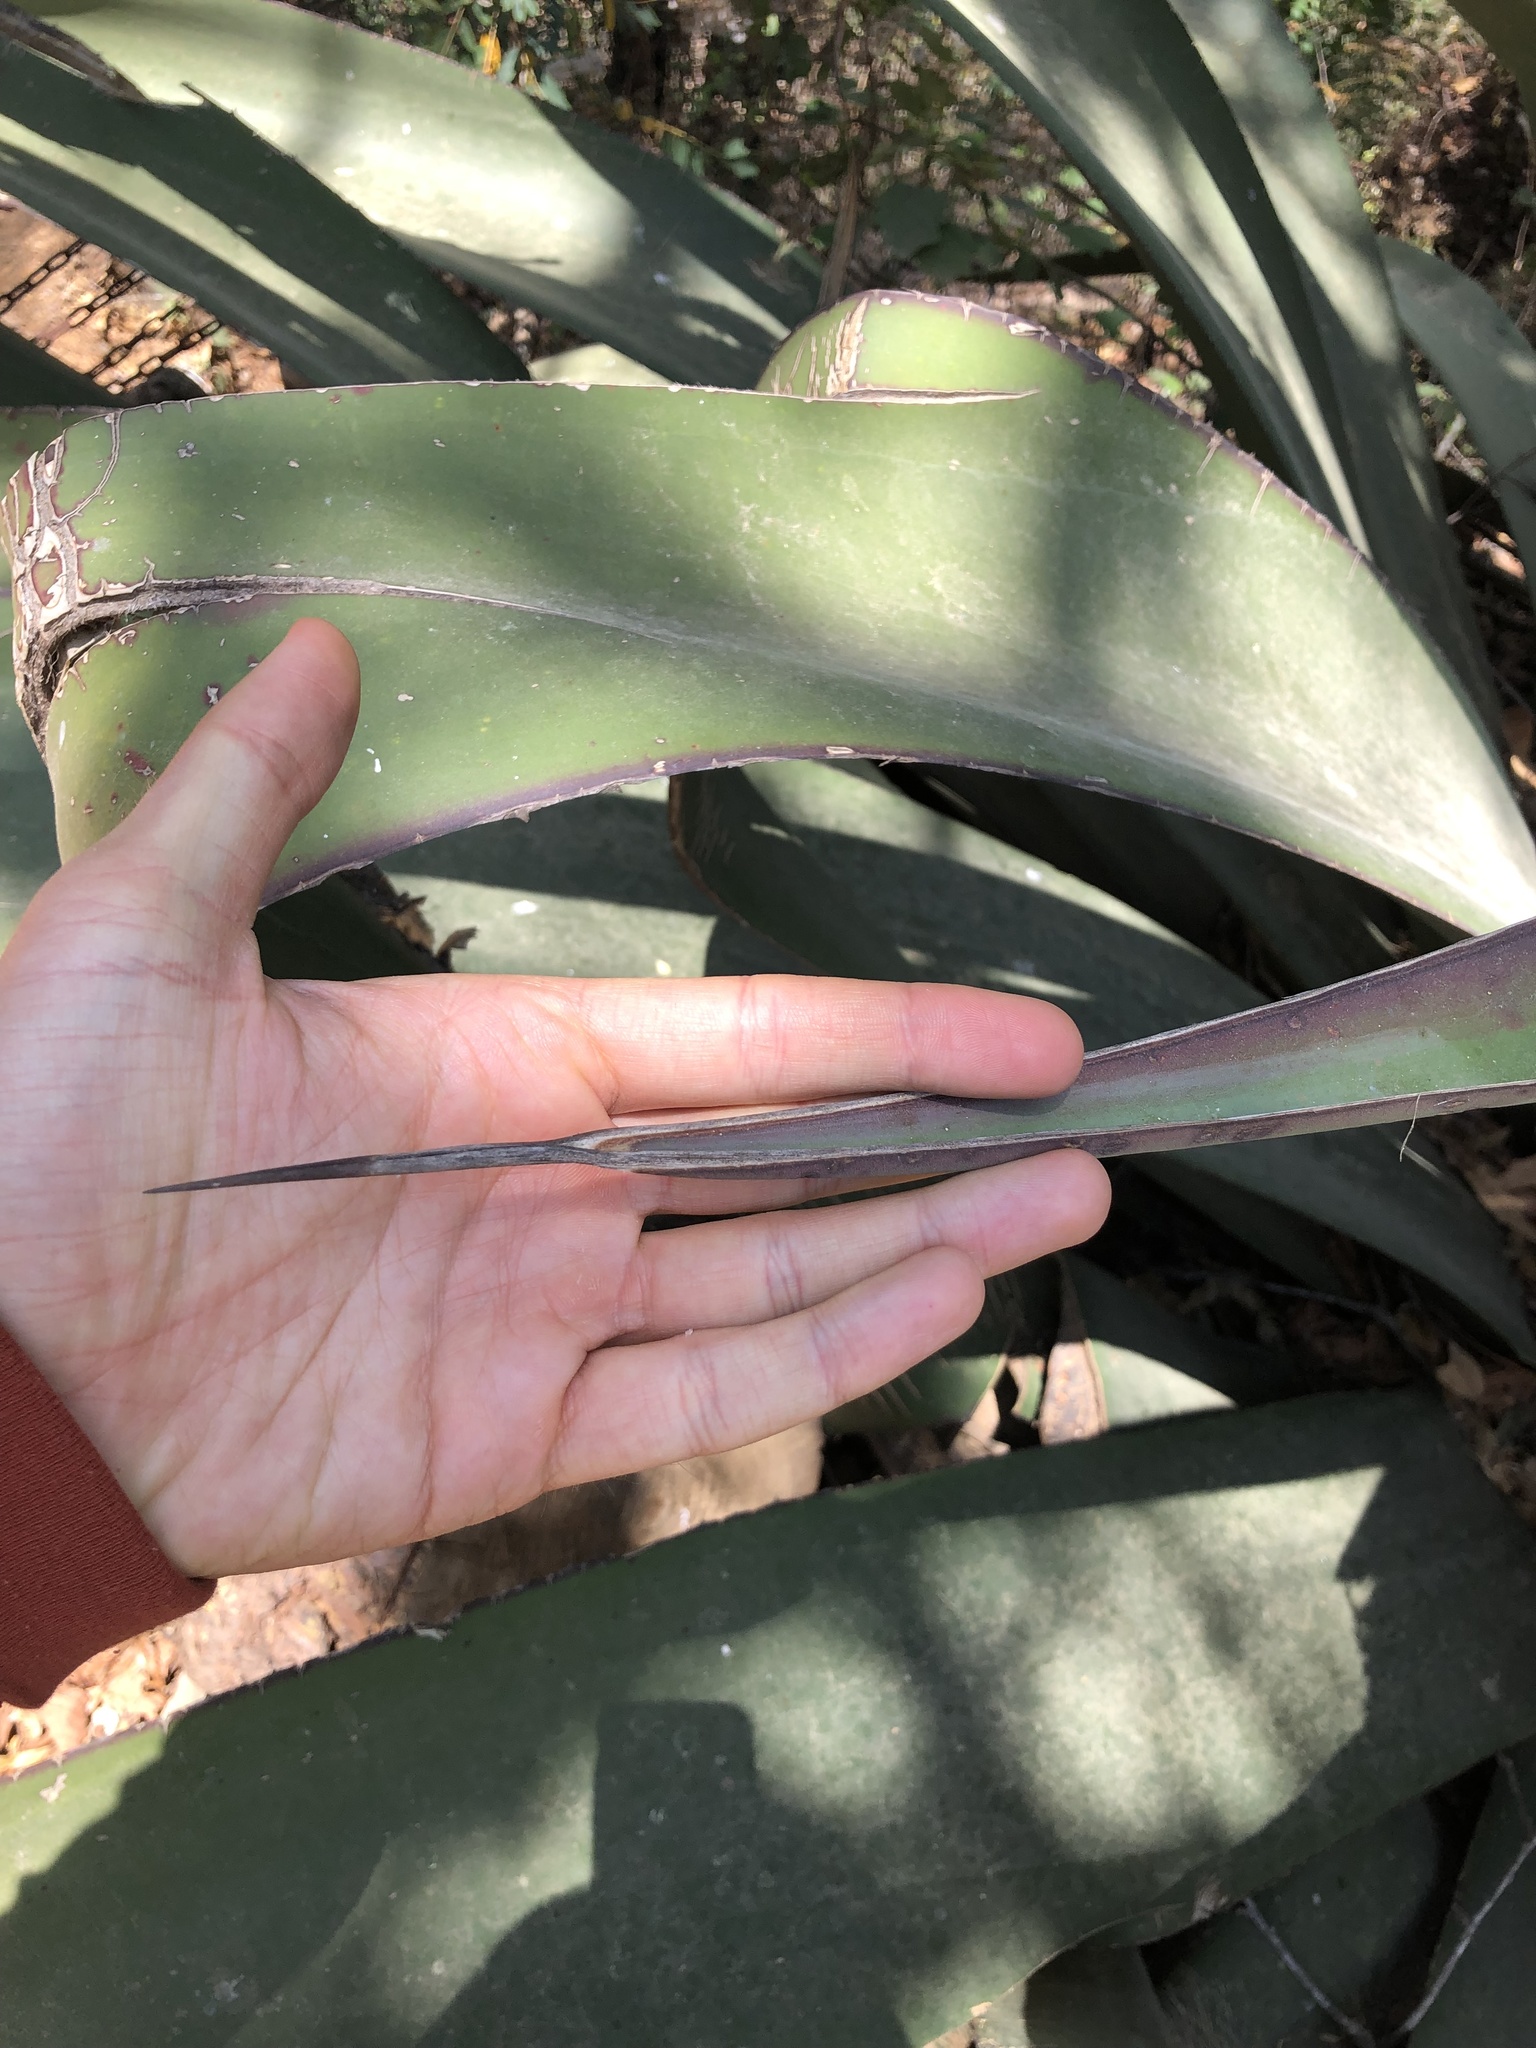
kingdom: Plantae
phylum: Tracheophyta
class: Liliopsida
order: Asparagales
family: Asparagaceae
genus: Agave
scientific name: Agave atrovirens
